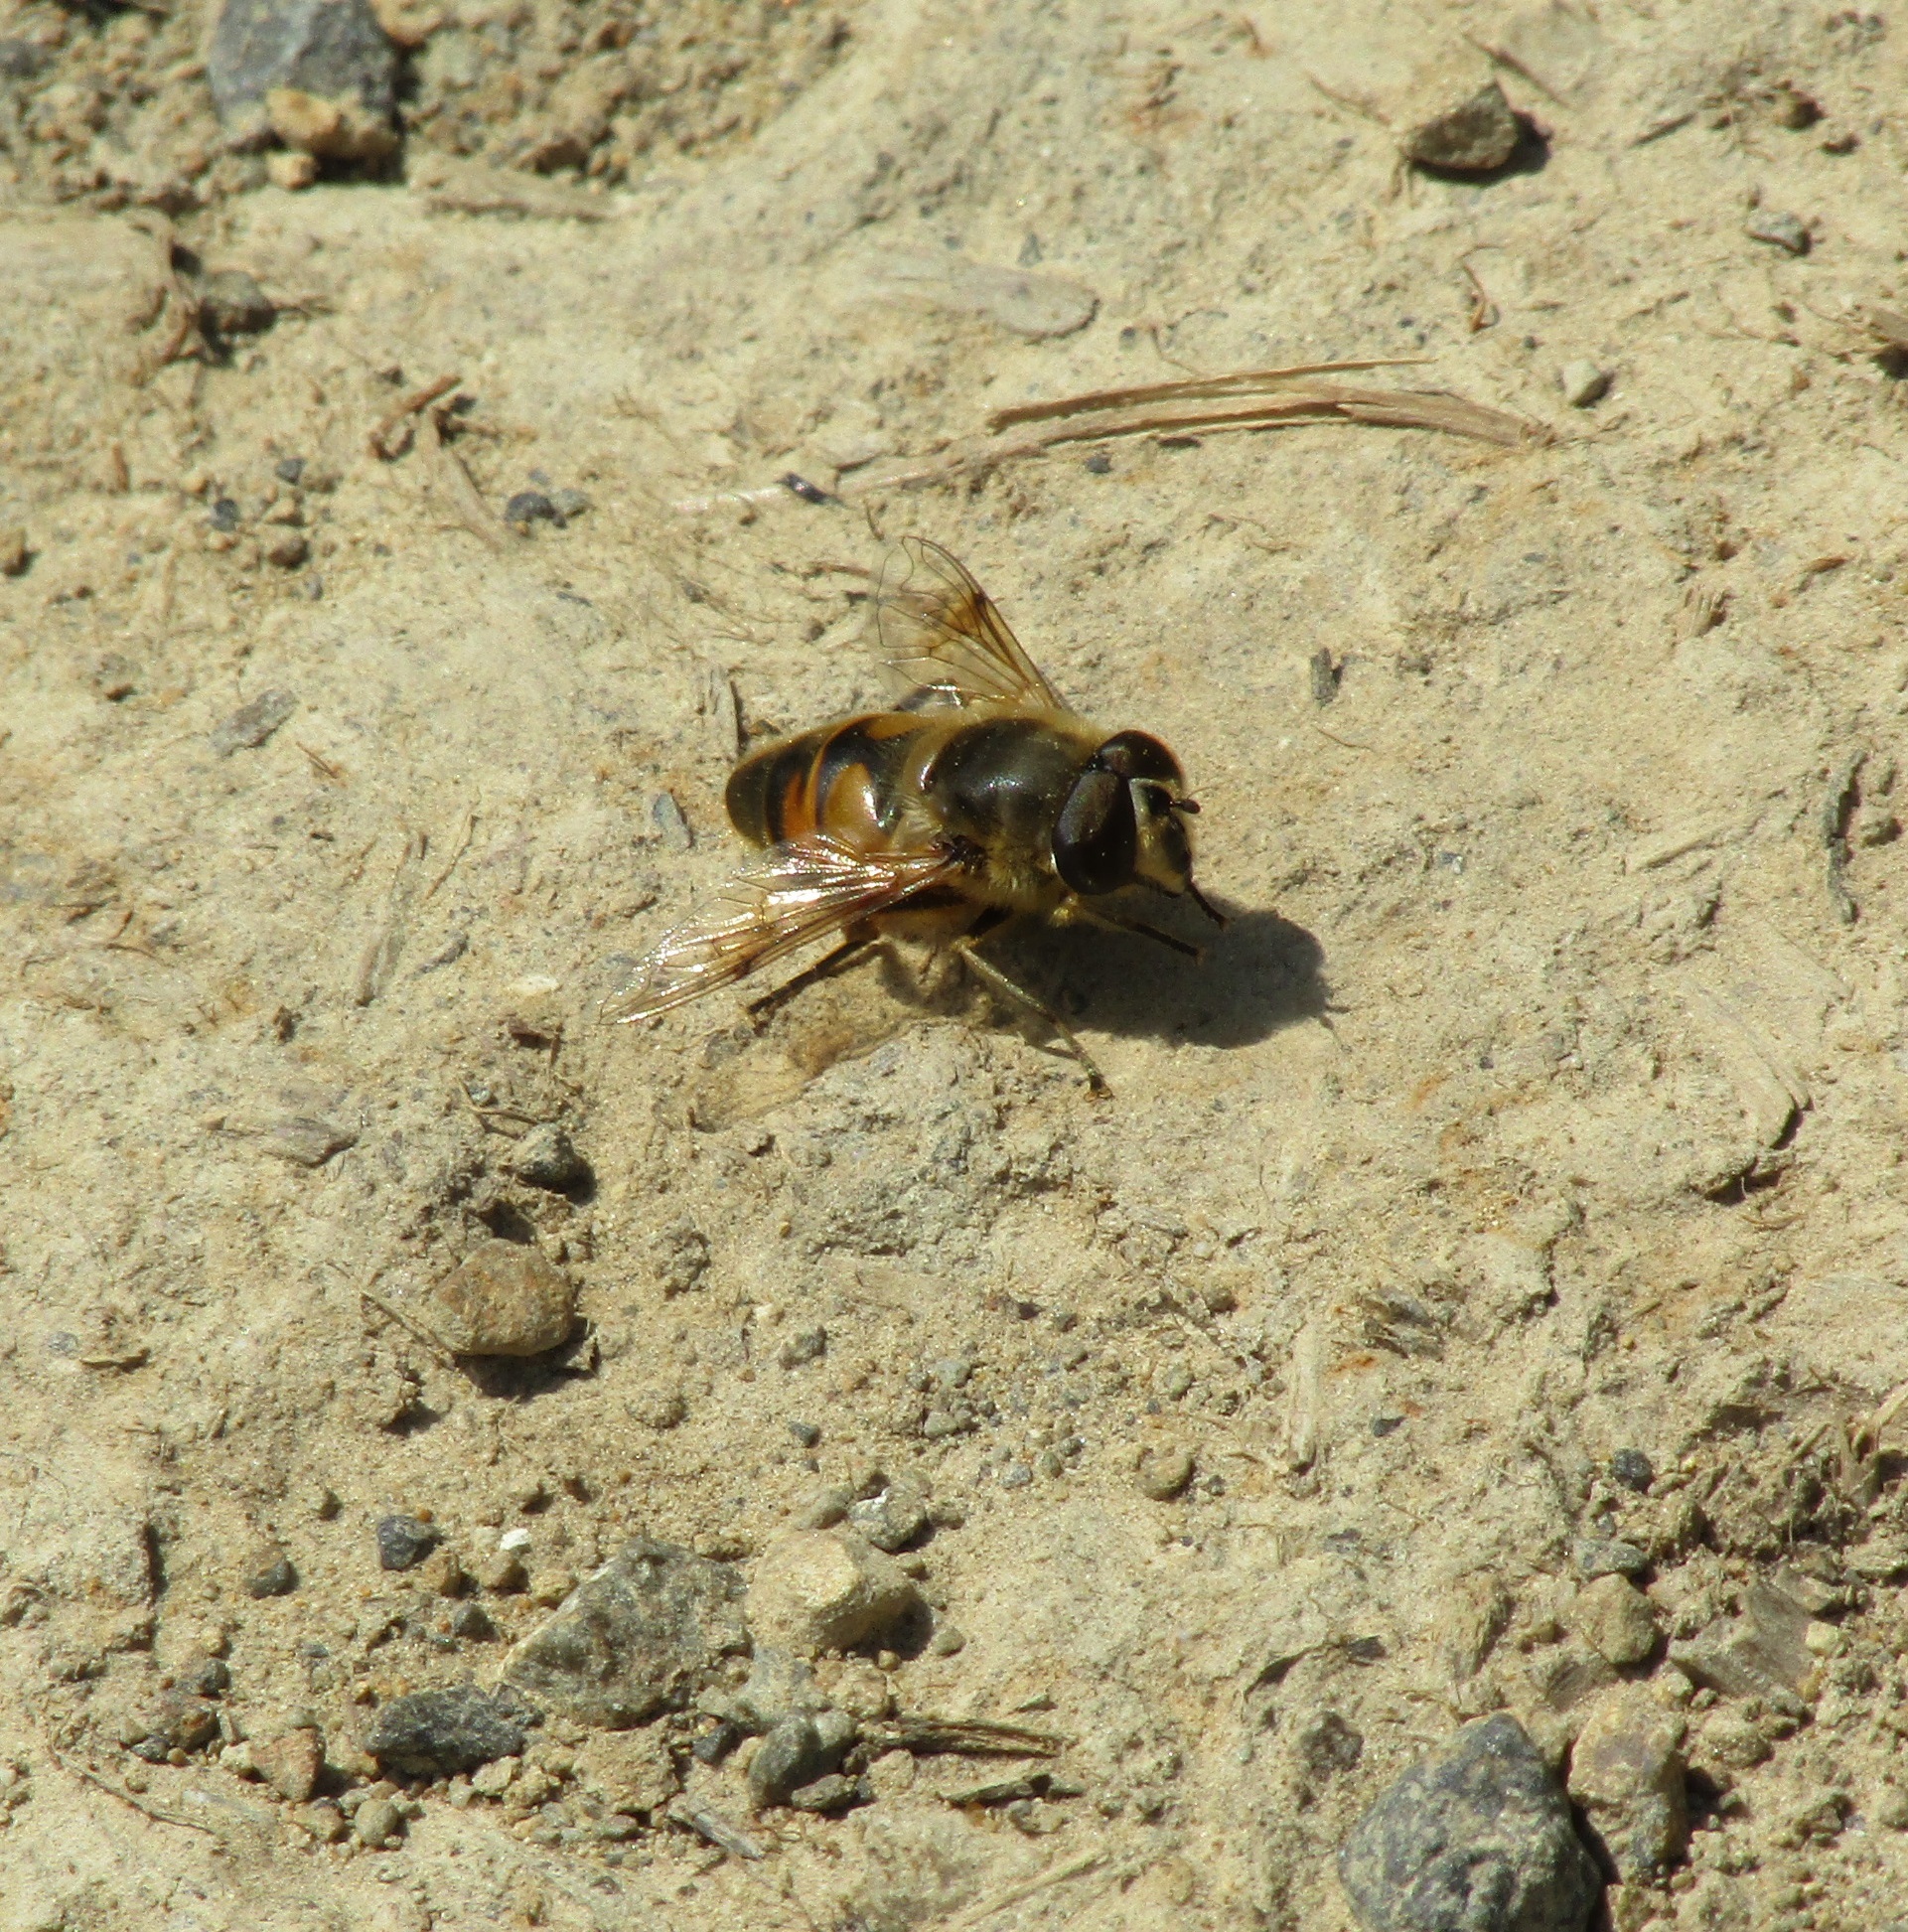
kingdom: Animalia
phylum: Arthropoda
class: Insecta
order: Diptera
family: Syrphidae
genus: Eristalis
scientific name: Eristalis tenax
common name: Drone fly
